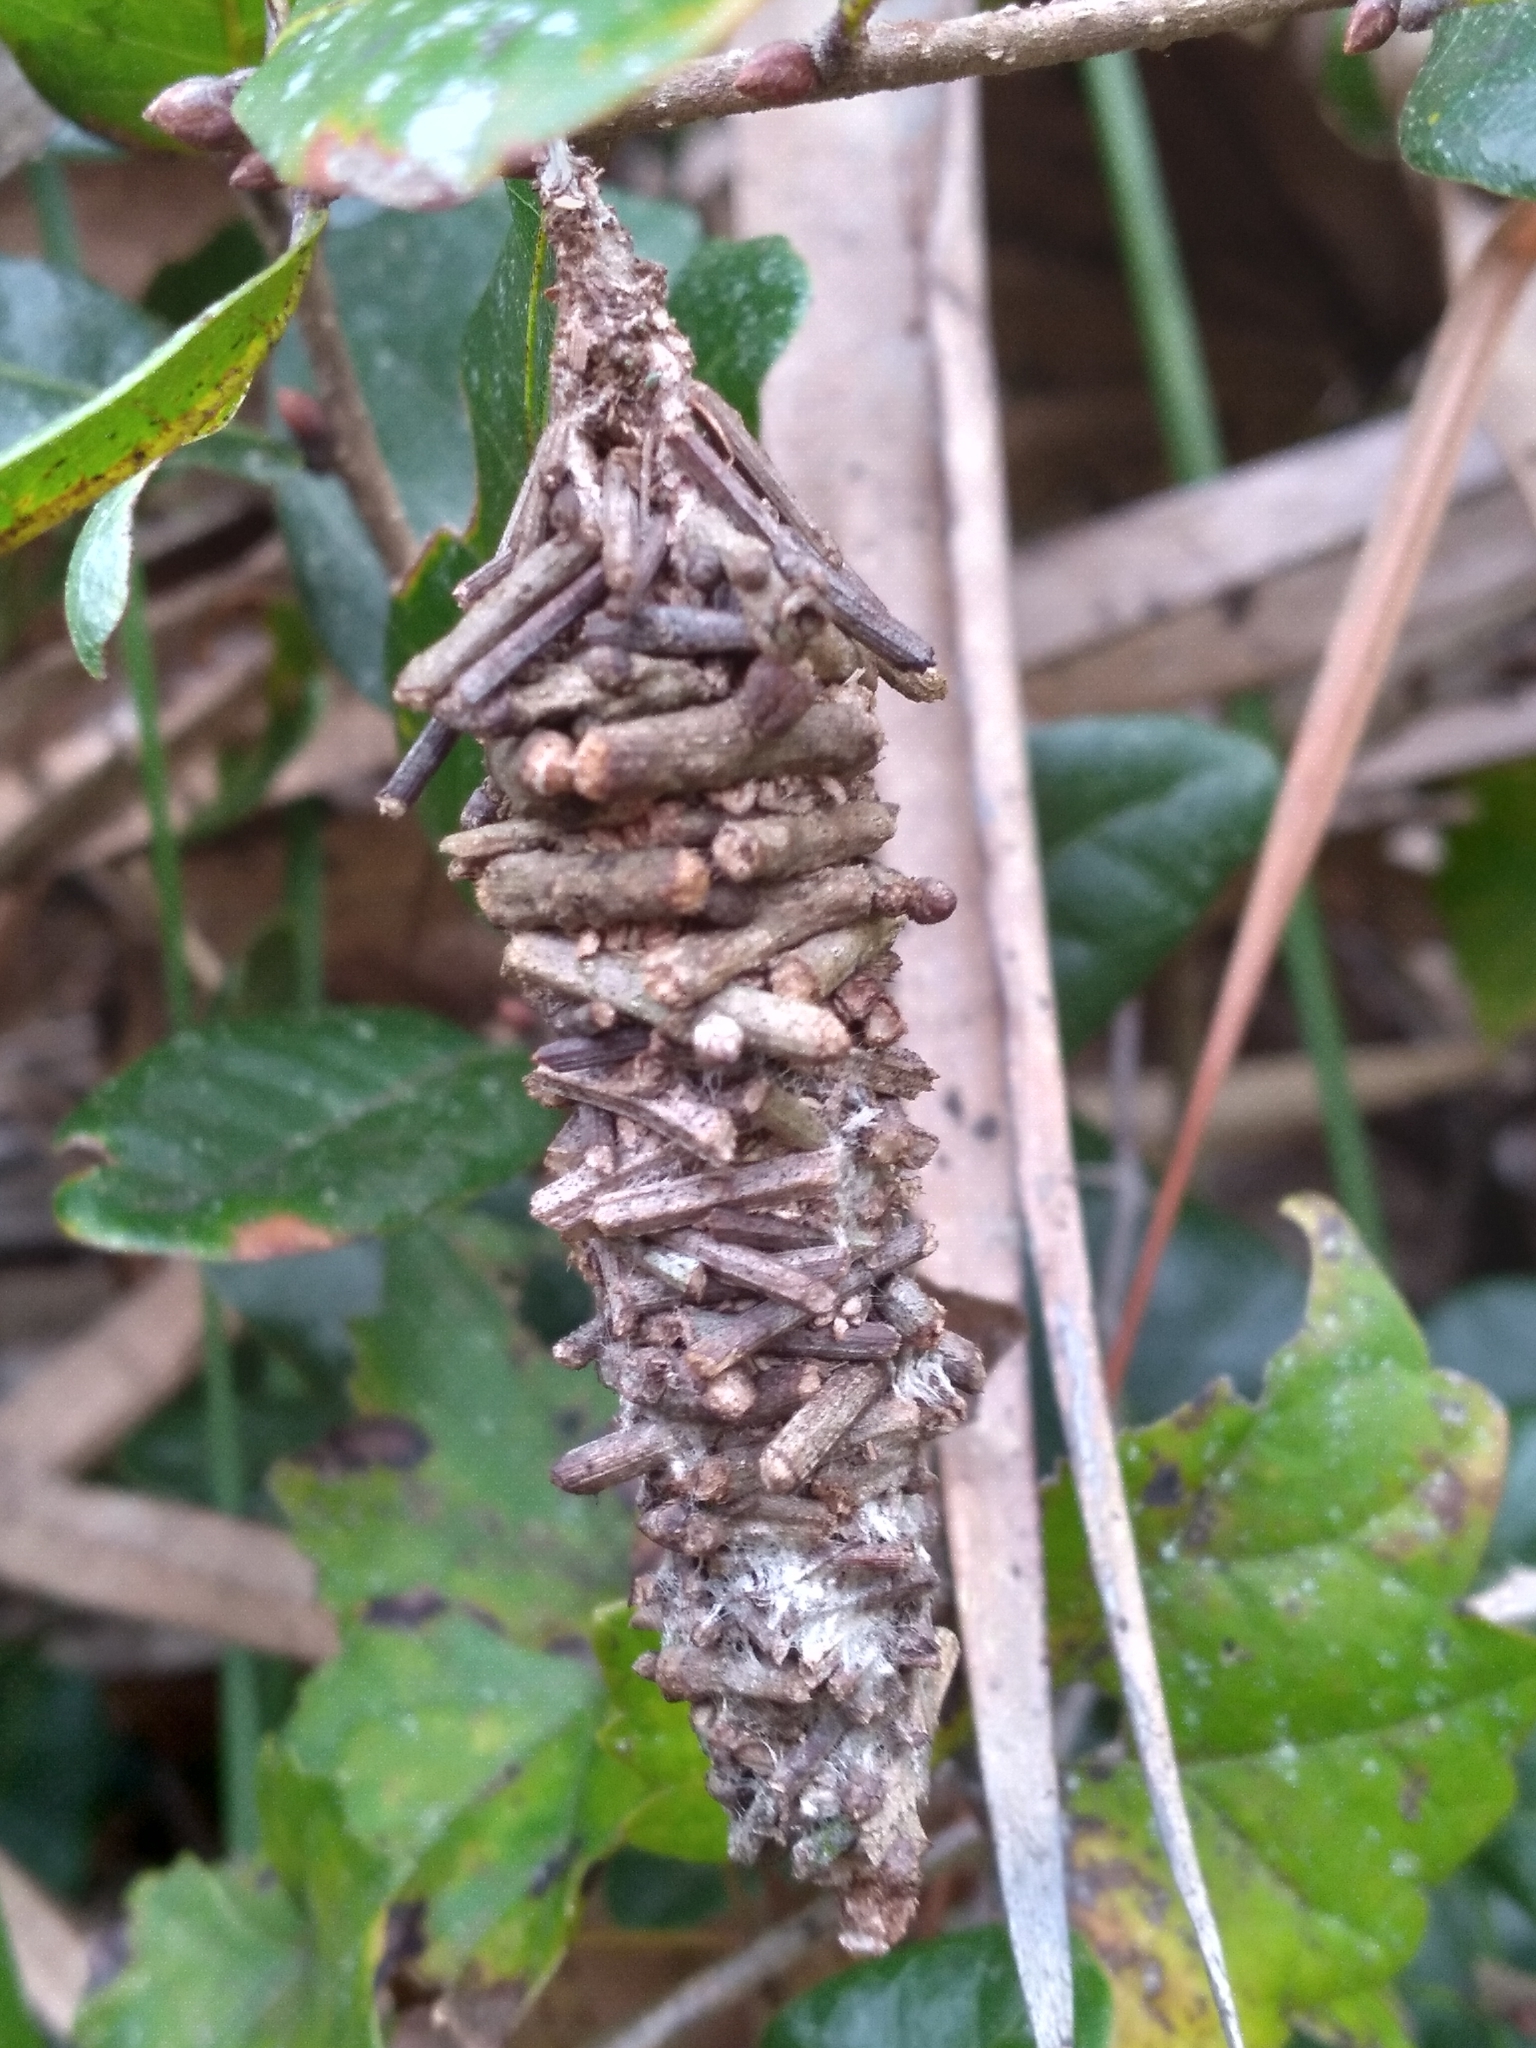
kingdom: Animalia
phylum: Arthropoda
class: Insecta
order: Lepidoptera
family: Psychidae
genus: Oiketicus
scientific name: Oiketicus
